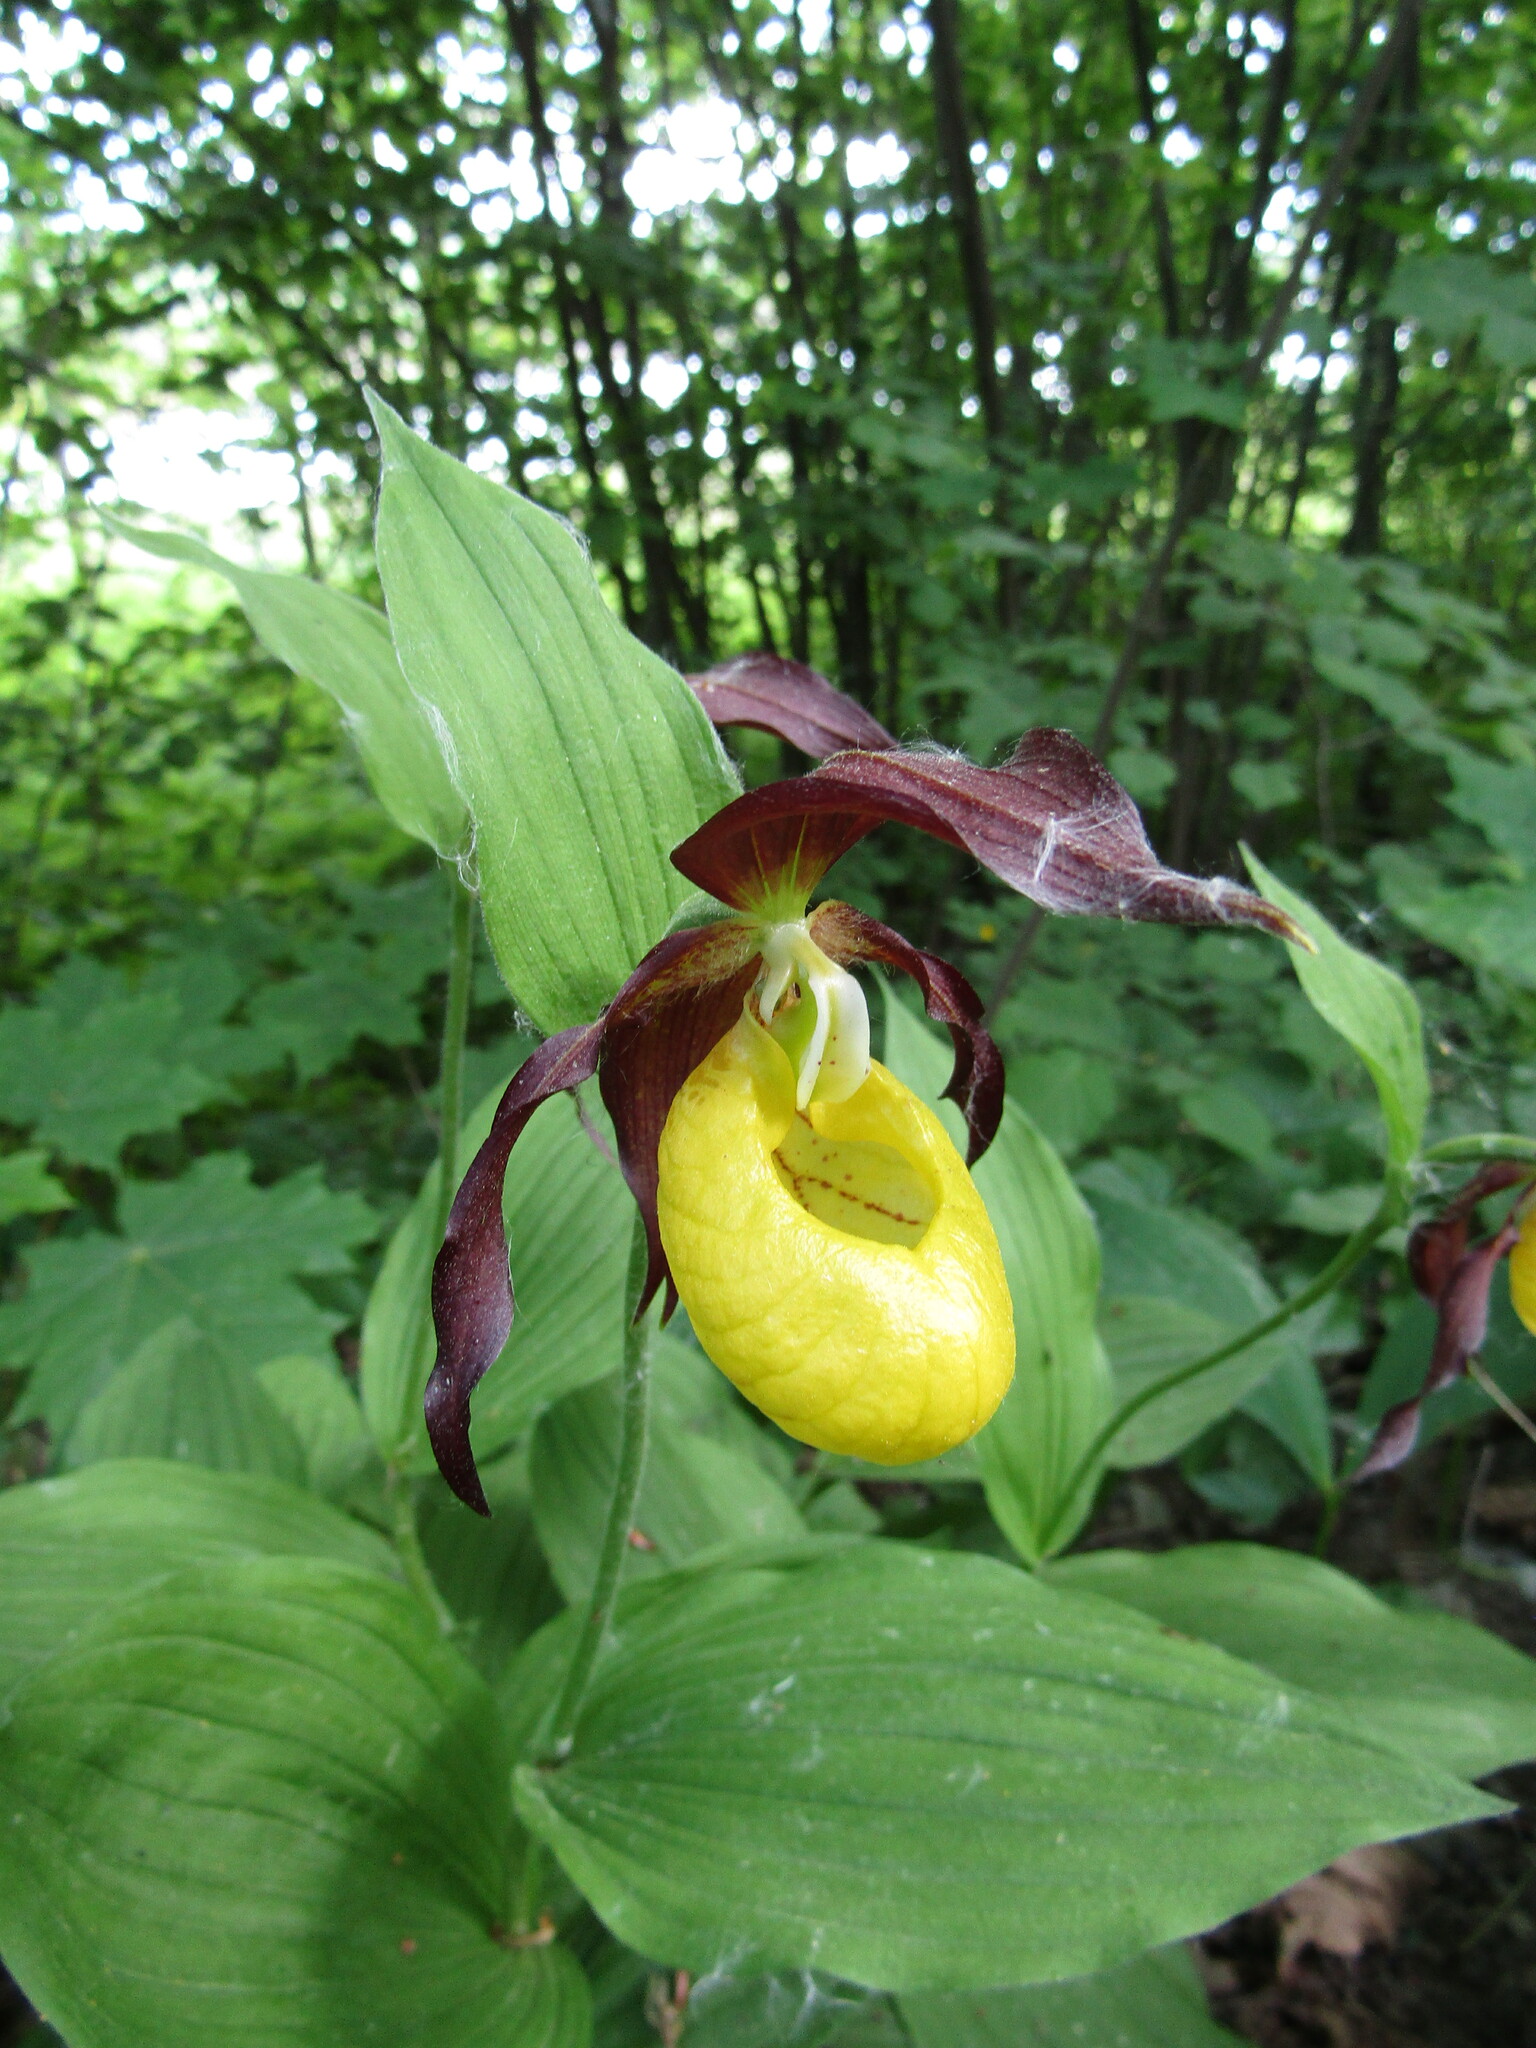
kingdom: Plantae
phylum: Tracheophyta
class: Liliopsida
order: Asparagales
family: Orchidaceae
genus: Cypripedium
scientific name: Cypripedium calceolus
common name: Lady's-slipper
